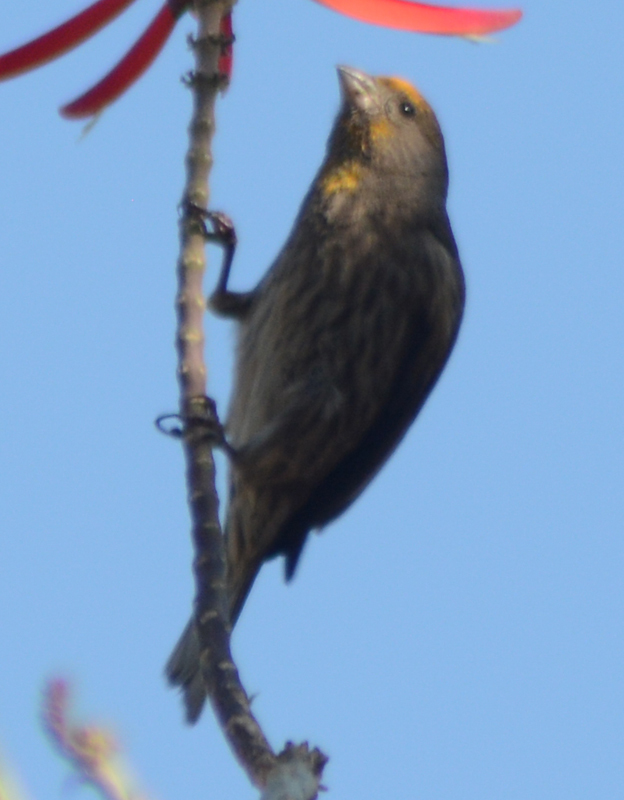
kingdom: Animalia
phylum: Chordata
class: Aves
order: Passeriformes
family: Fringillidae
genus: Haemorhous
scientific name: Haemorhous mexicanus
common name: House finch
